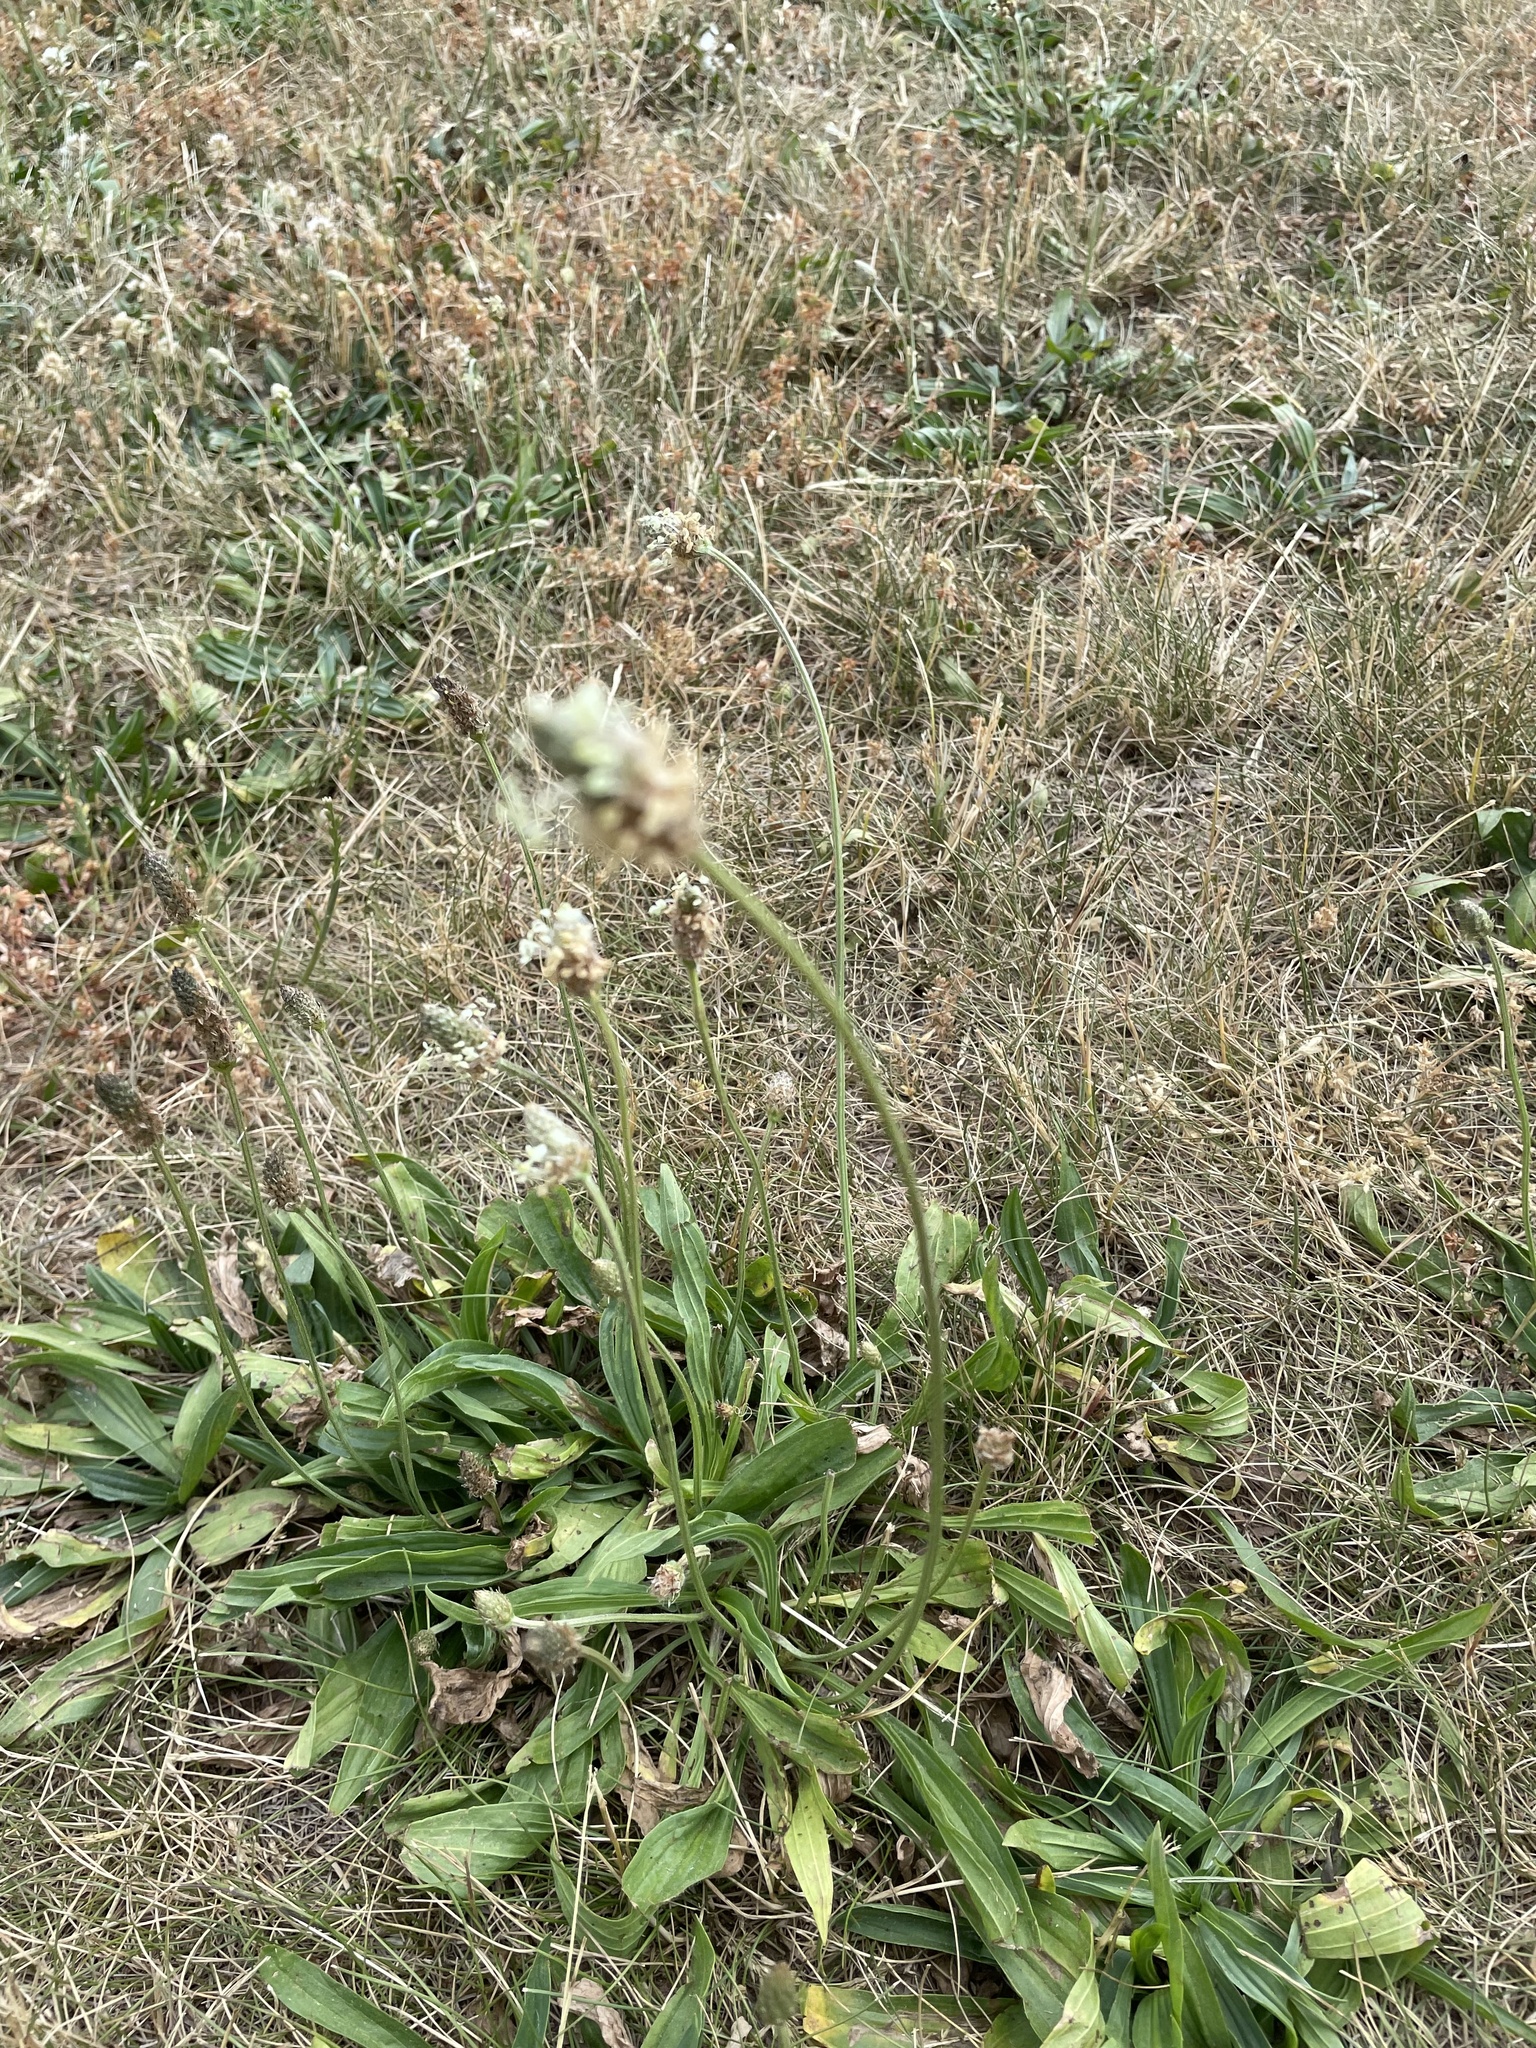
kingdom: Plantae
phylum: Tracheophyta
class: Magnoliopsida
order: Lamiales
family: Plantaginaceae
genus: Plantago
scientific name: Plantago lanceolata
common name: Ribwort plantain
